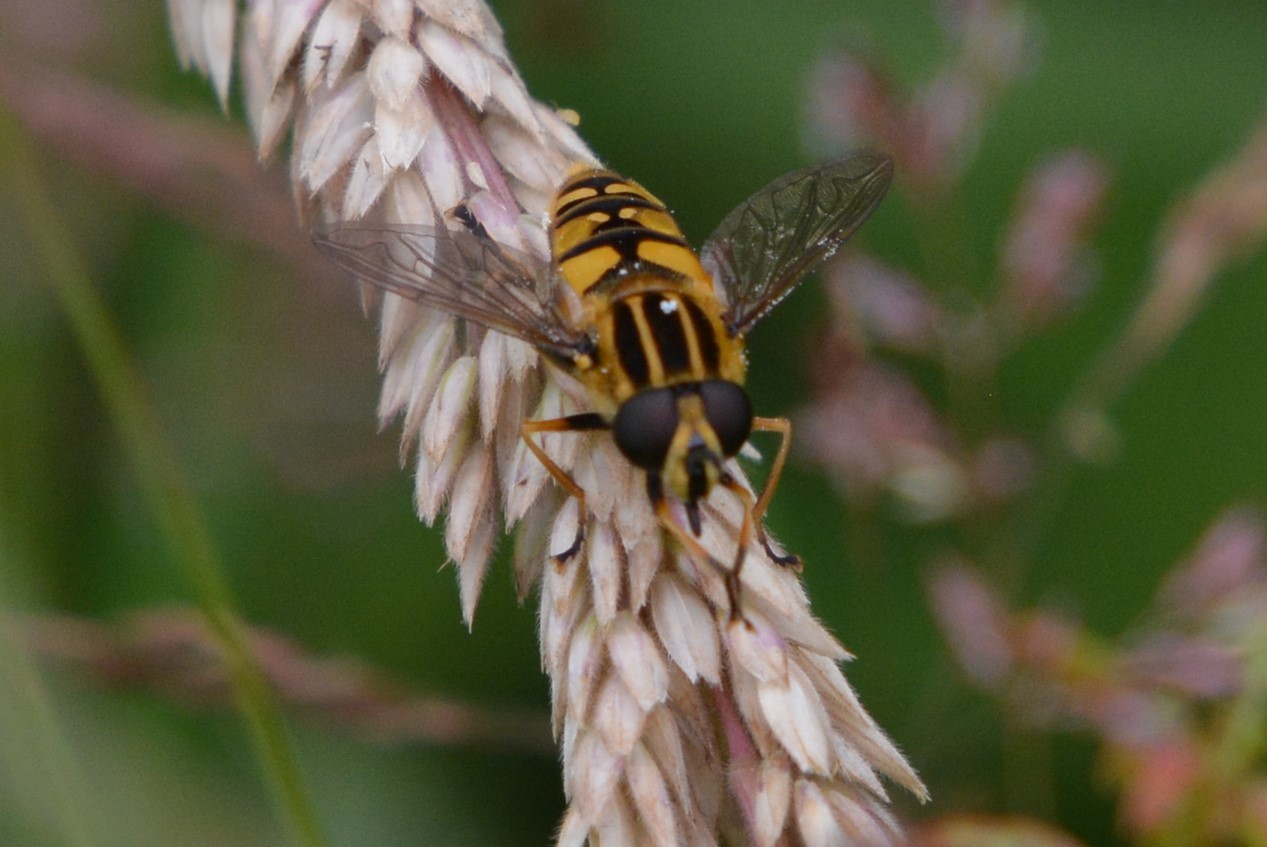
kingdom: Animalia
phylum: Arthropoda
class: Insecta
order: Diptera
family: Syrphidae
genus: Helophilus
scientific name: Helophilus pendulus
